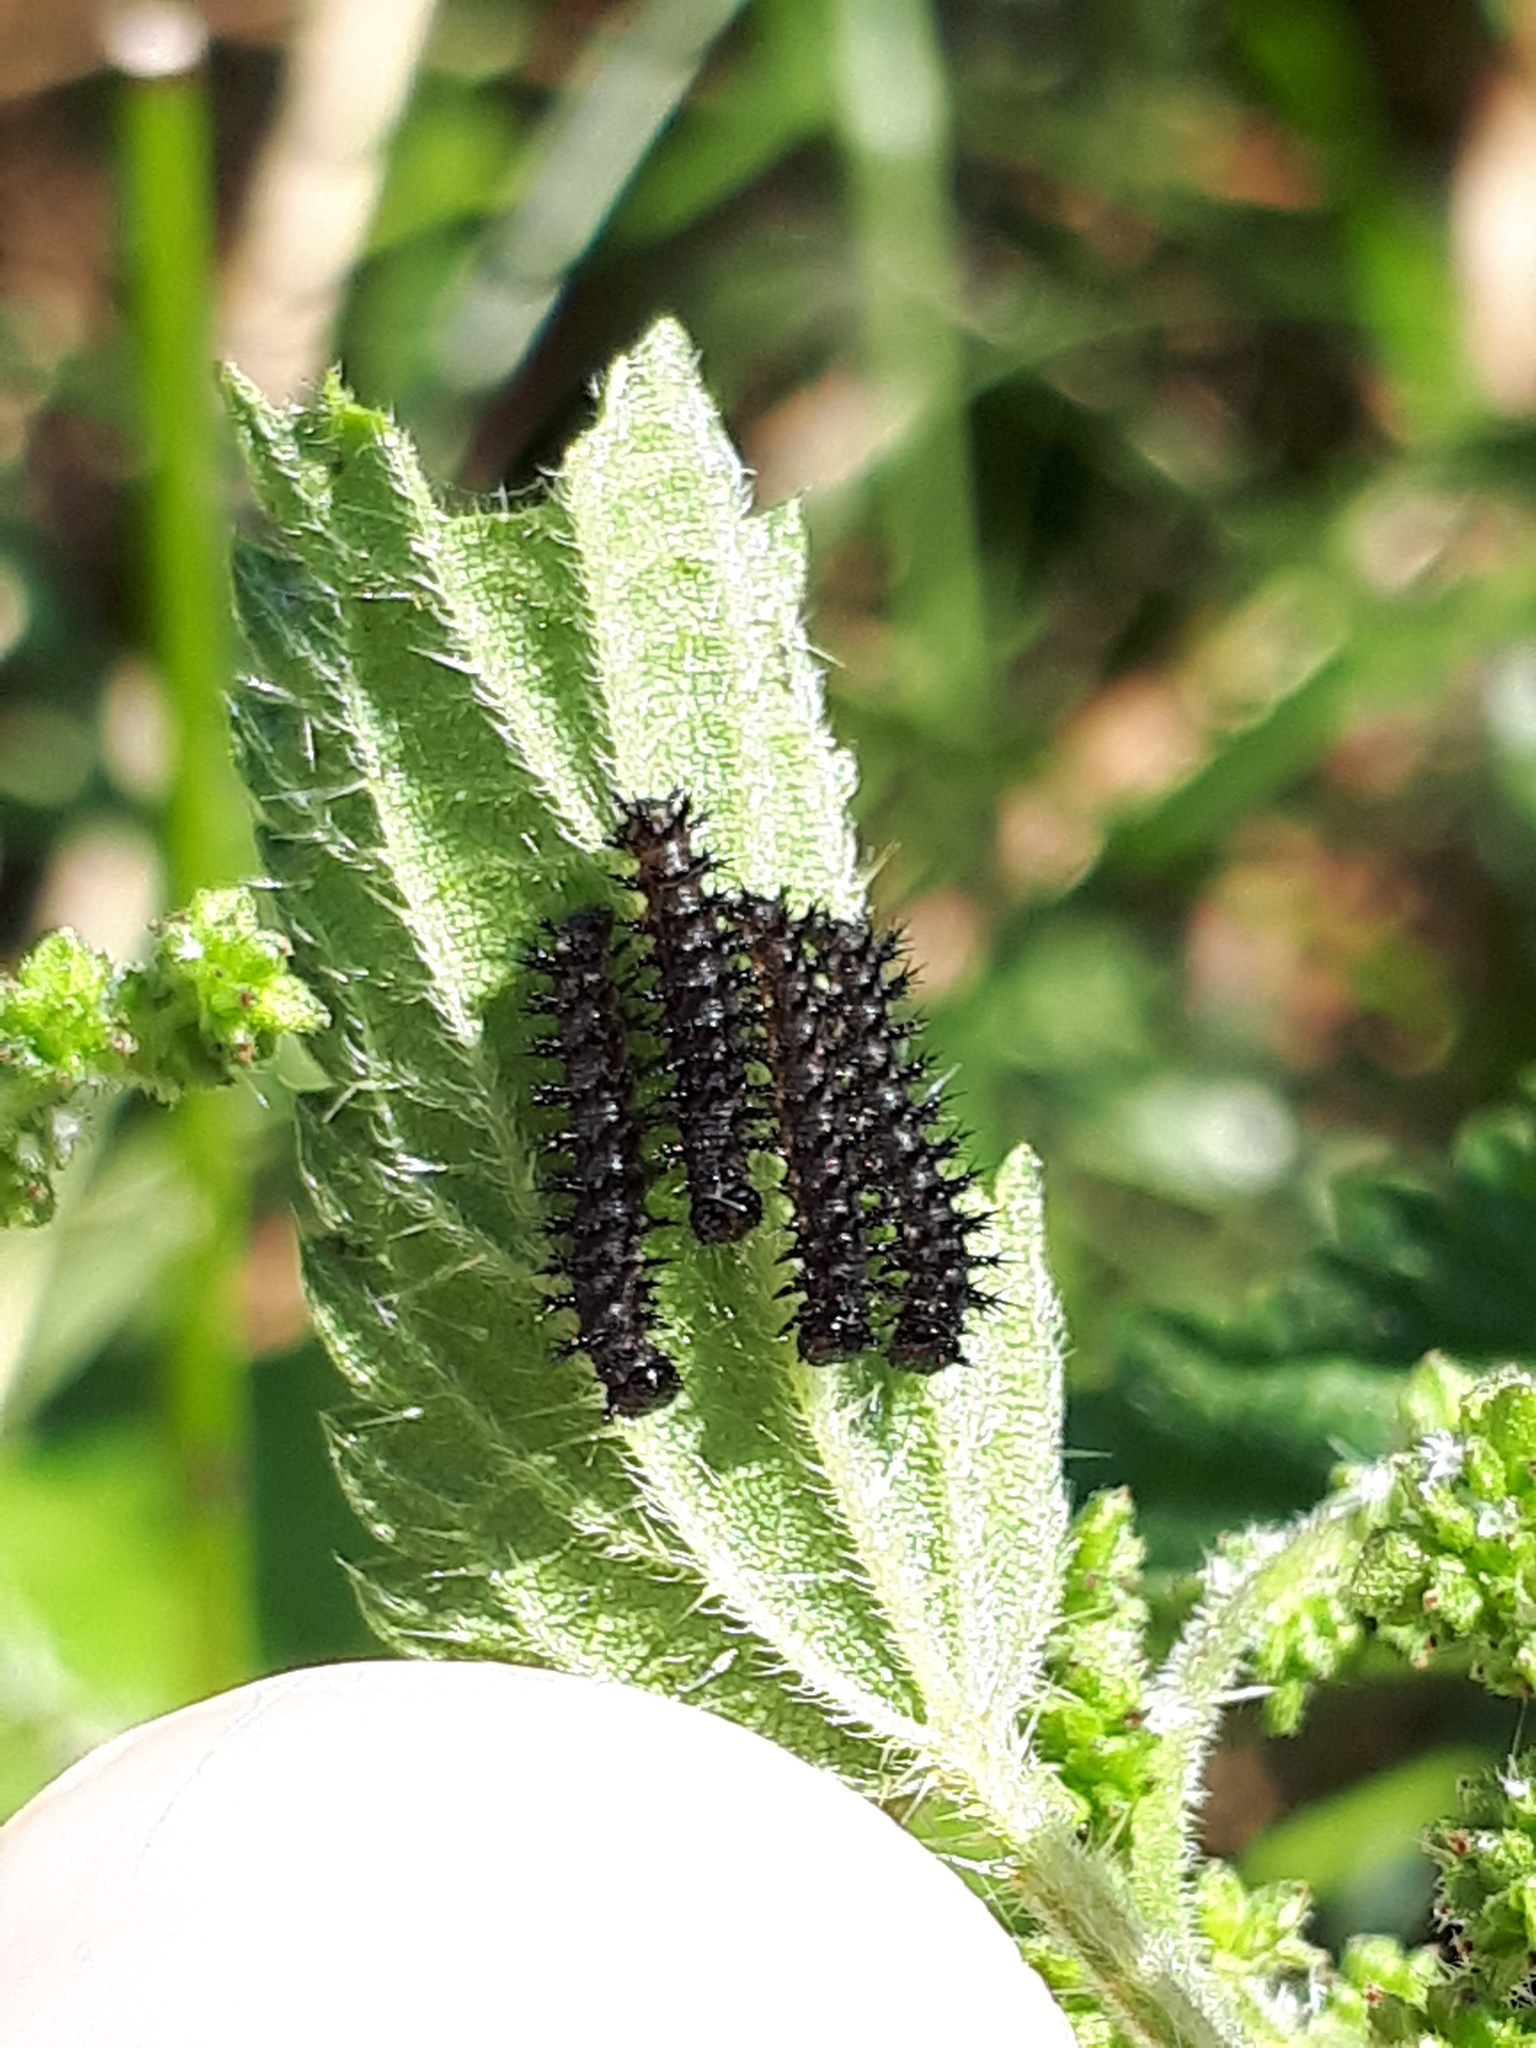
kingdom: Animalia
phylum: Arthropoda
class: Insecta
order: Lepidoptera
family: Nymphalidae
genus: Araschnia
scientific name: Araschnia levana
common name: Map butterfly
